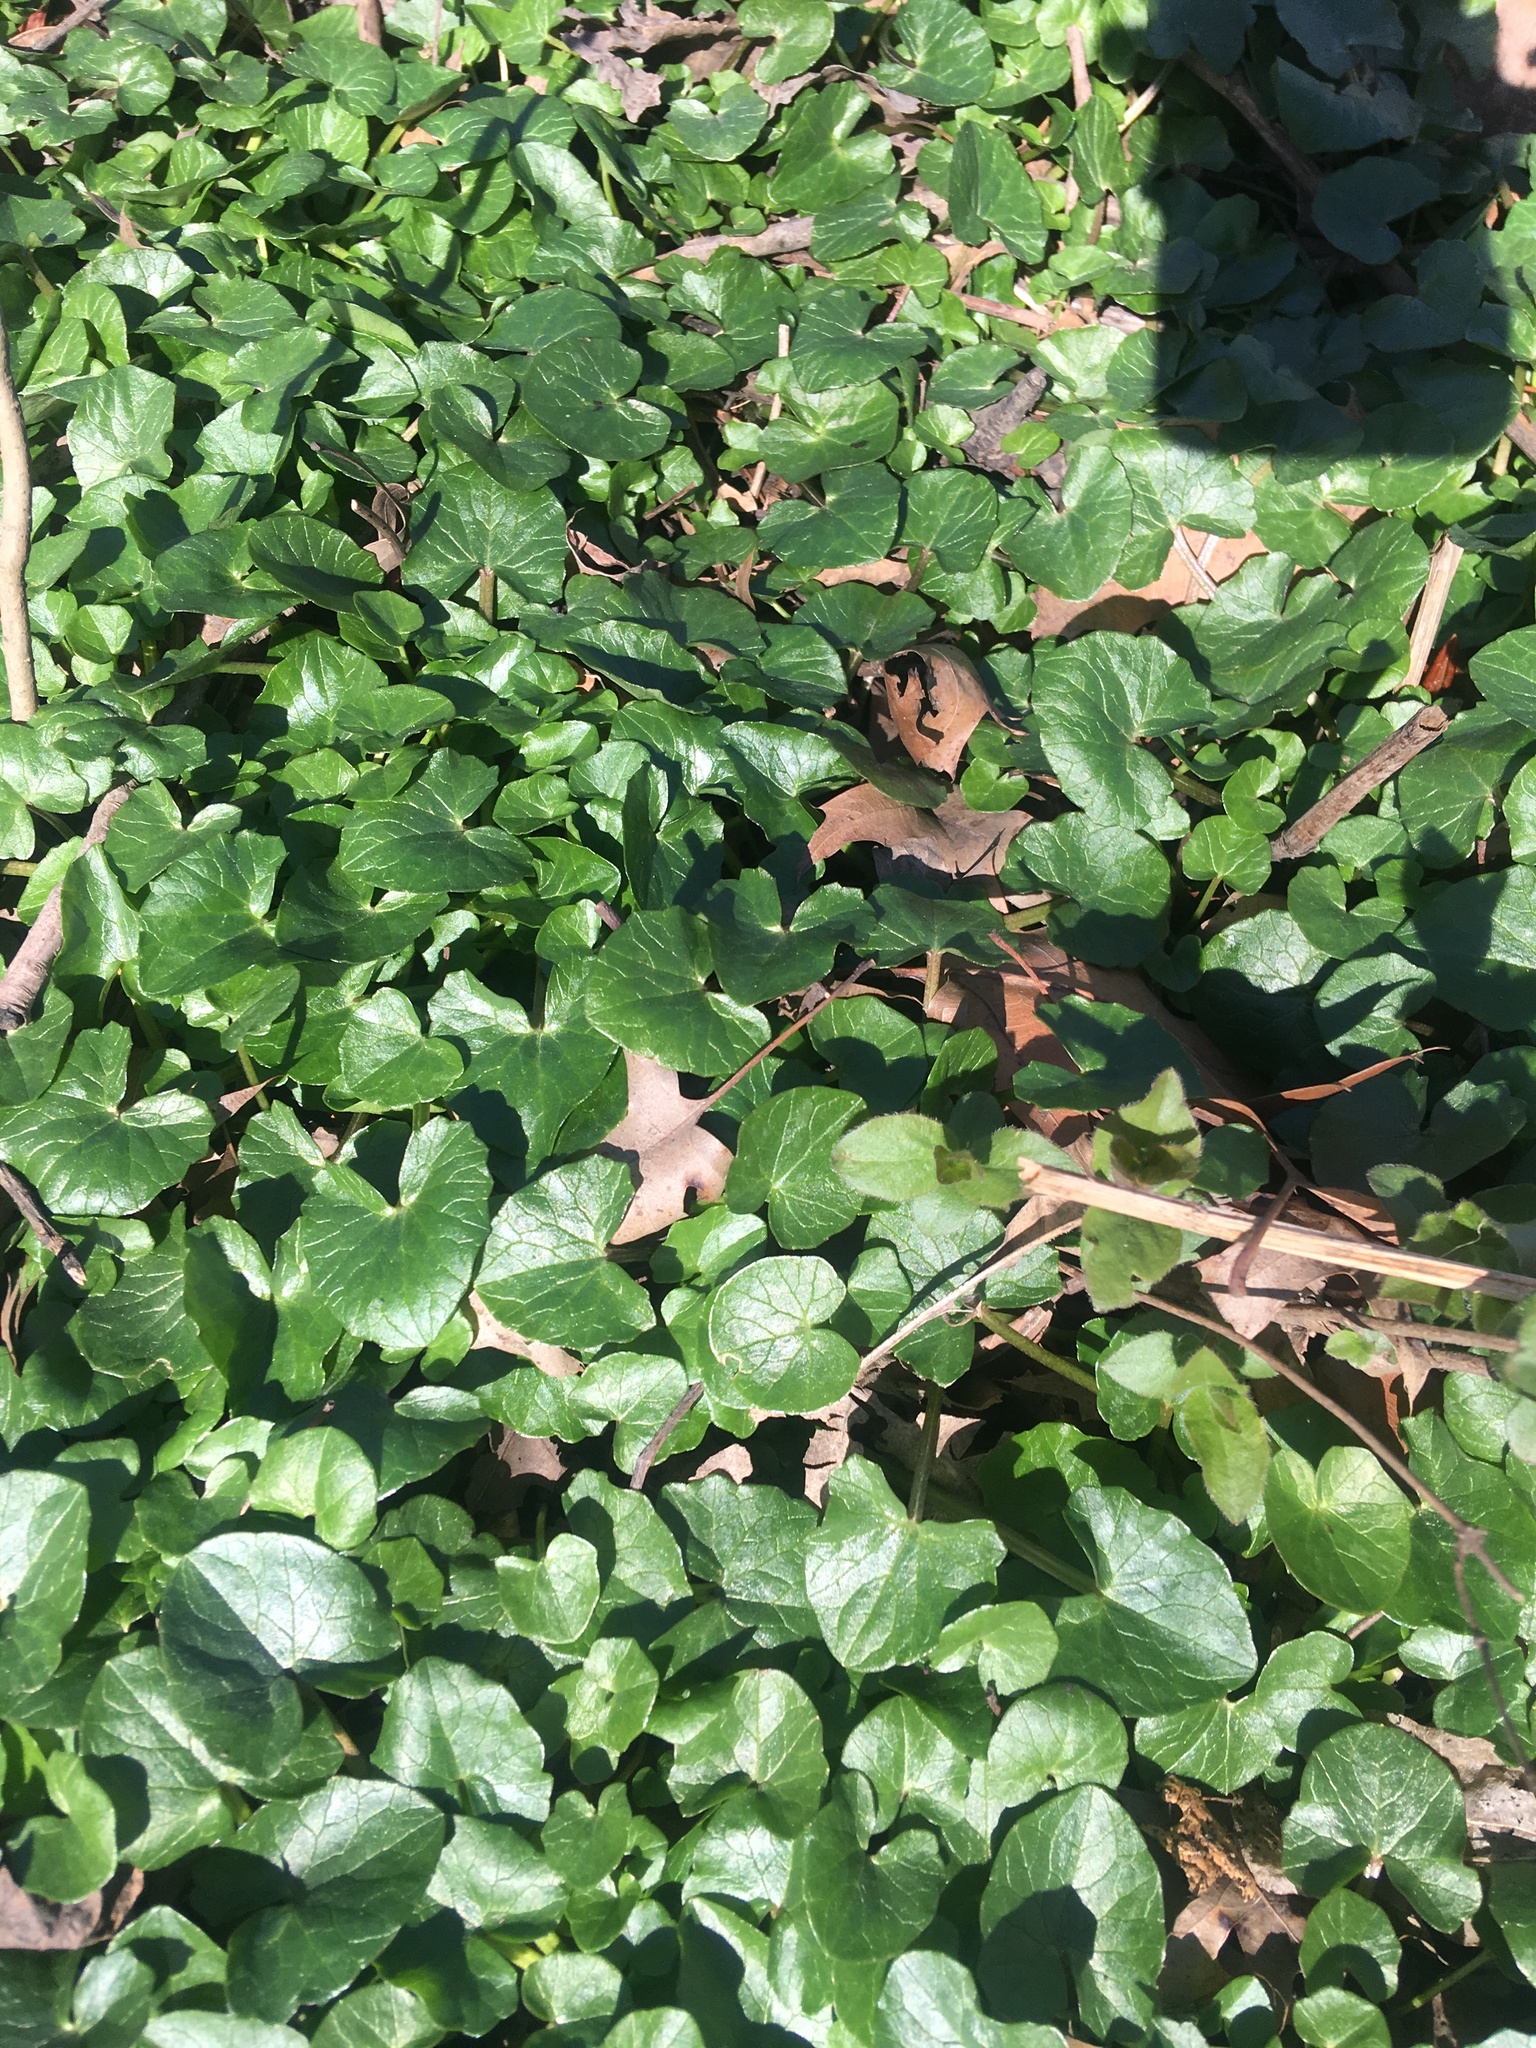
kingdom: Plantae
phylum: Tracheophyta
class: Magnoliopsida
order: Ranunculales
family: Ranunculaceae
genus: Ficaria
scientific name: Ficaria verna
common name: Lesser celandine
